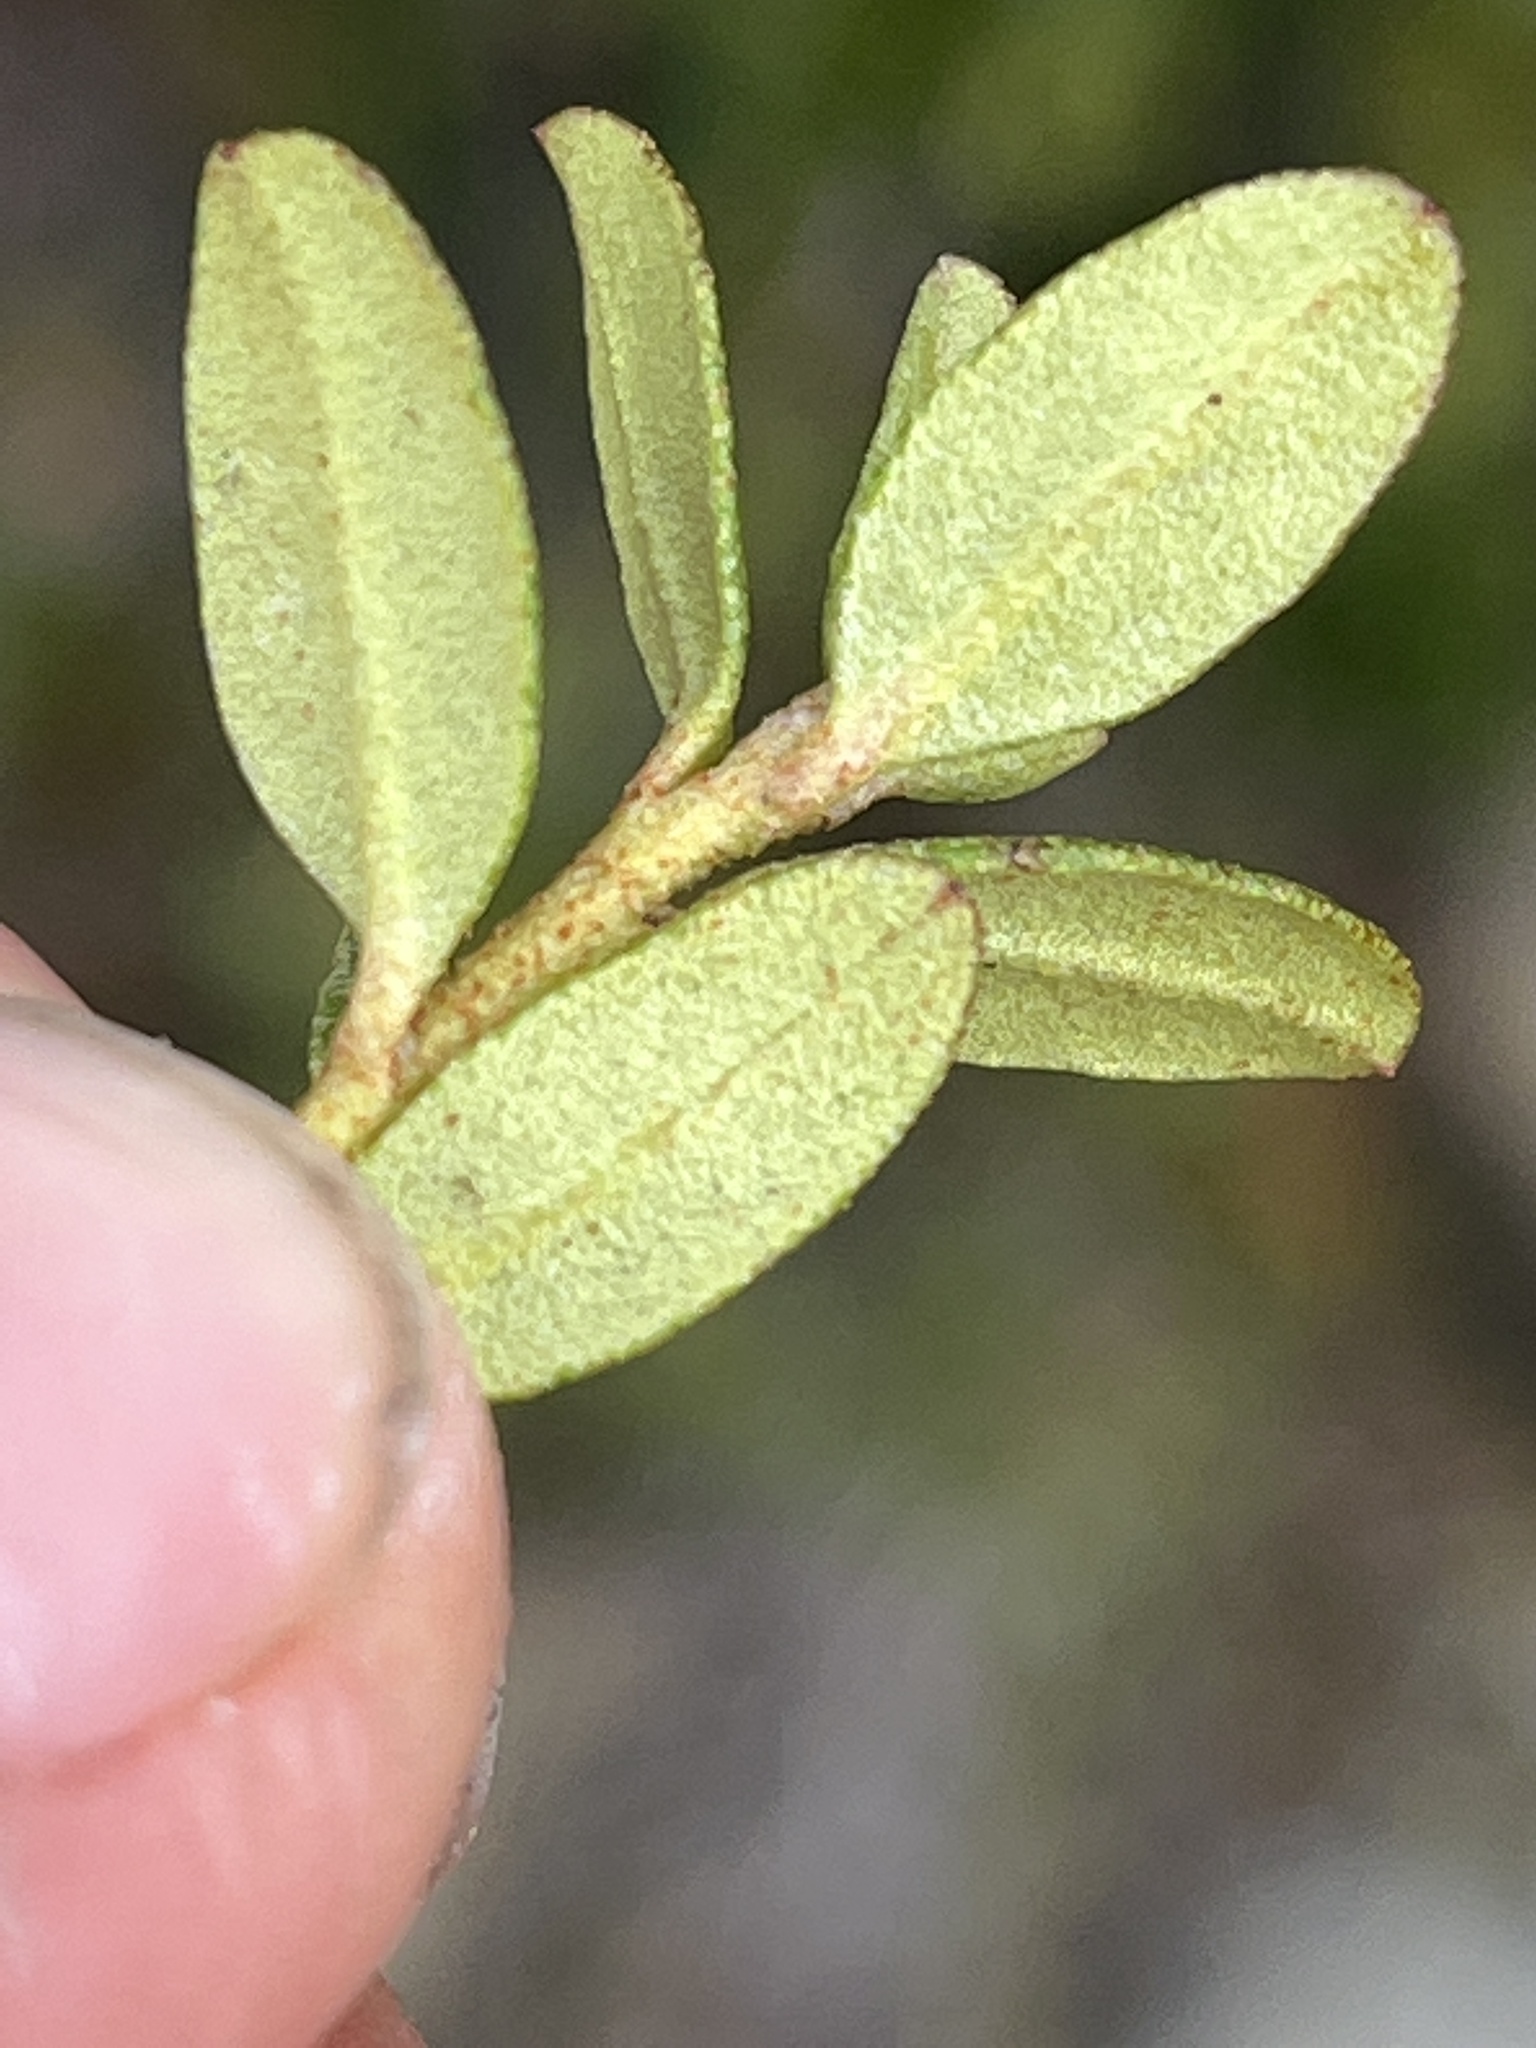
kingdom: Plantae
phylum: Tracheophyta
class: Magnoliopsida
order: Ericales
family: Ericaceae
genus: Rhododendron
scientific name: Rhododendron lapponicum
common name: Lapland rhododendron
